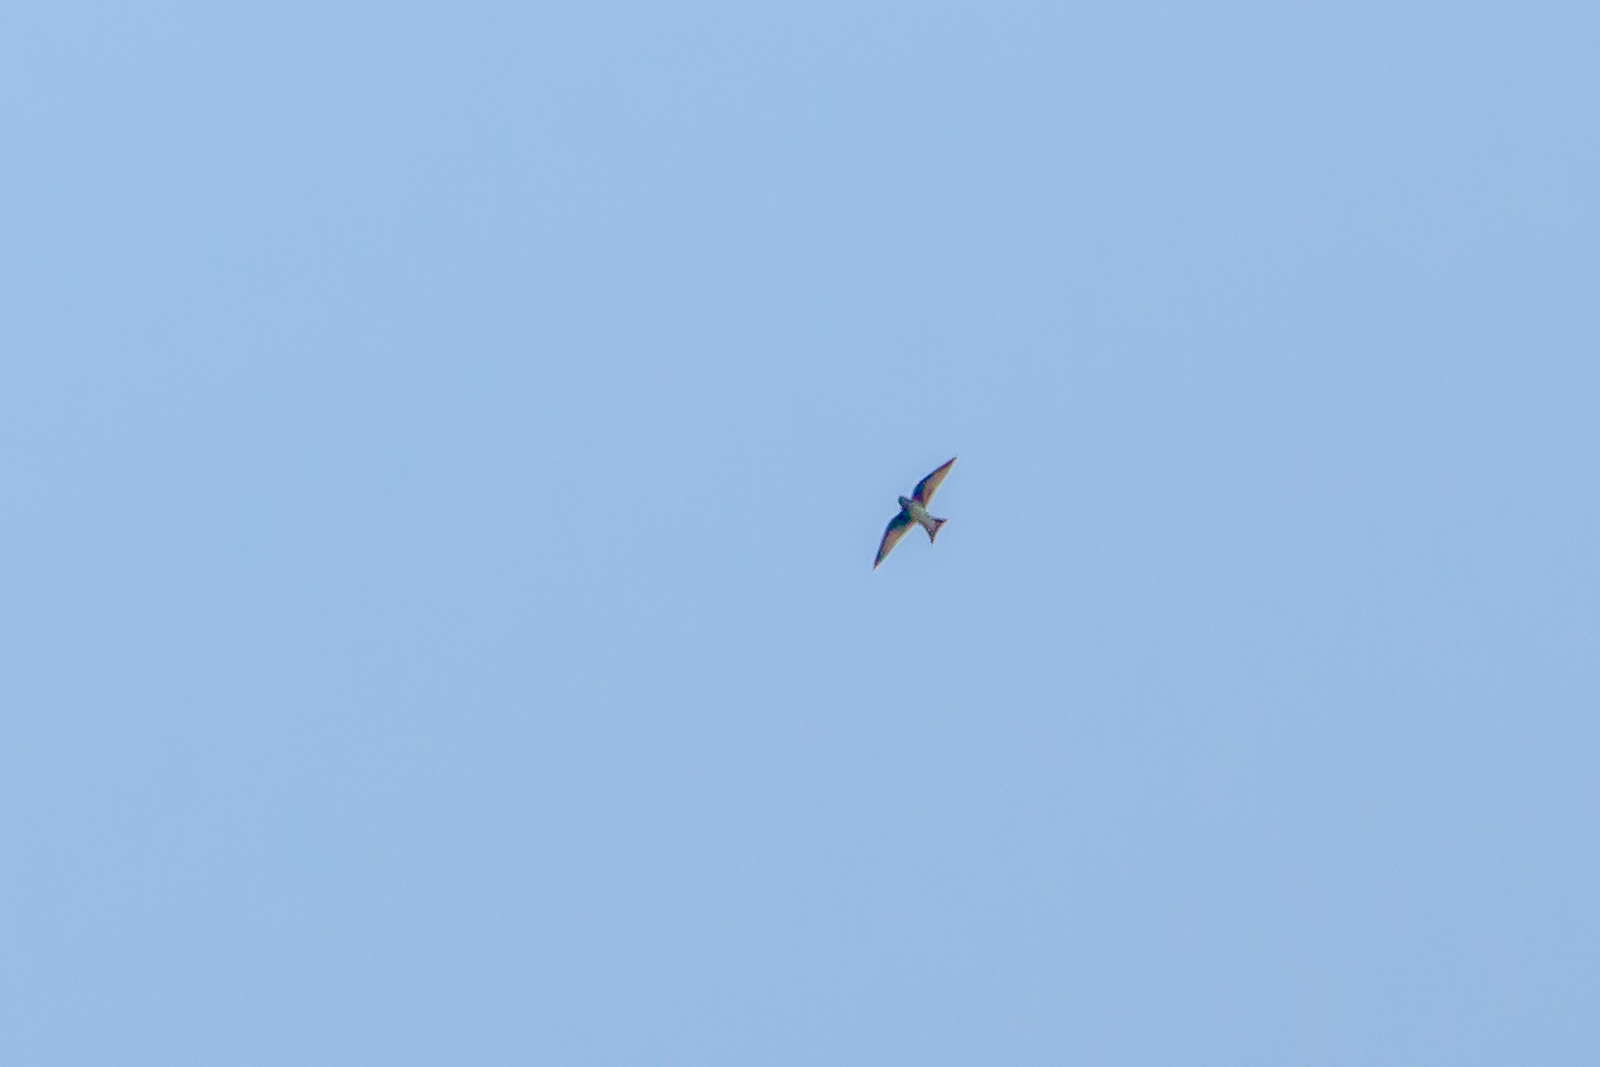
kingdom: Animalia
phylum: Chordata
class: Aves
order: Passeriformes
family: Hirundinidae
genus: Tachycineta
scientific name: Tachycineta bicolor
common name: Tree swallow
